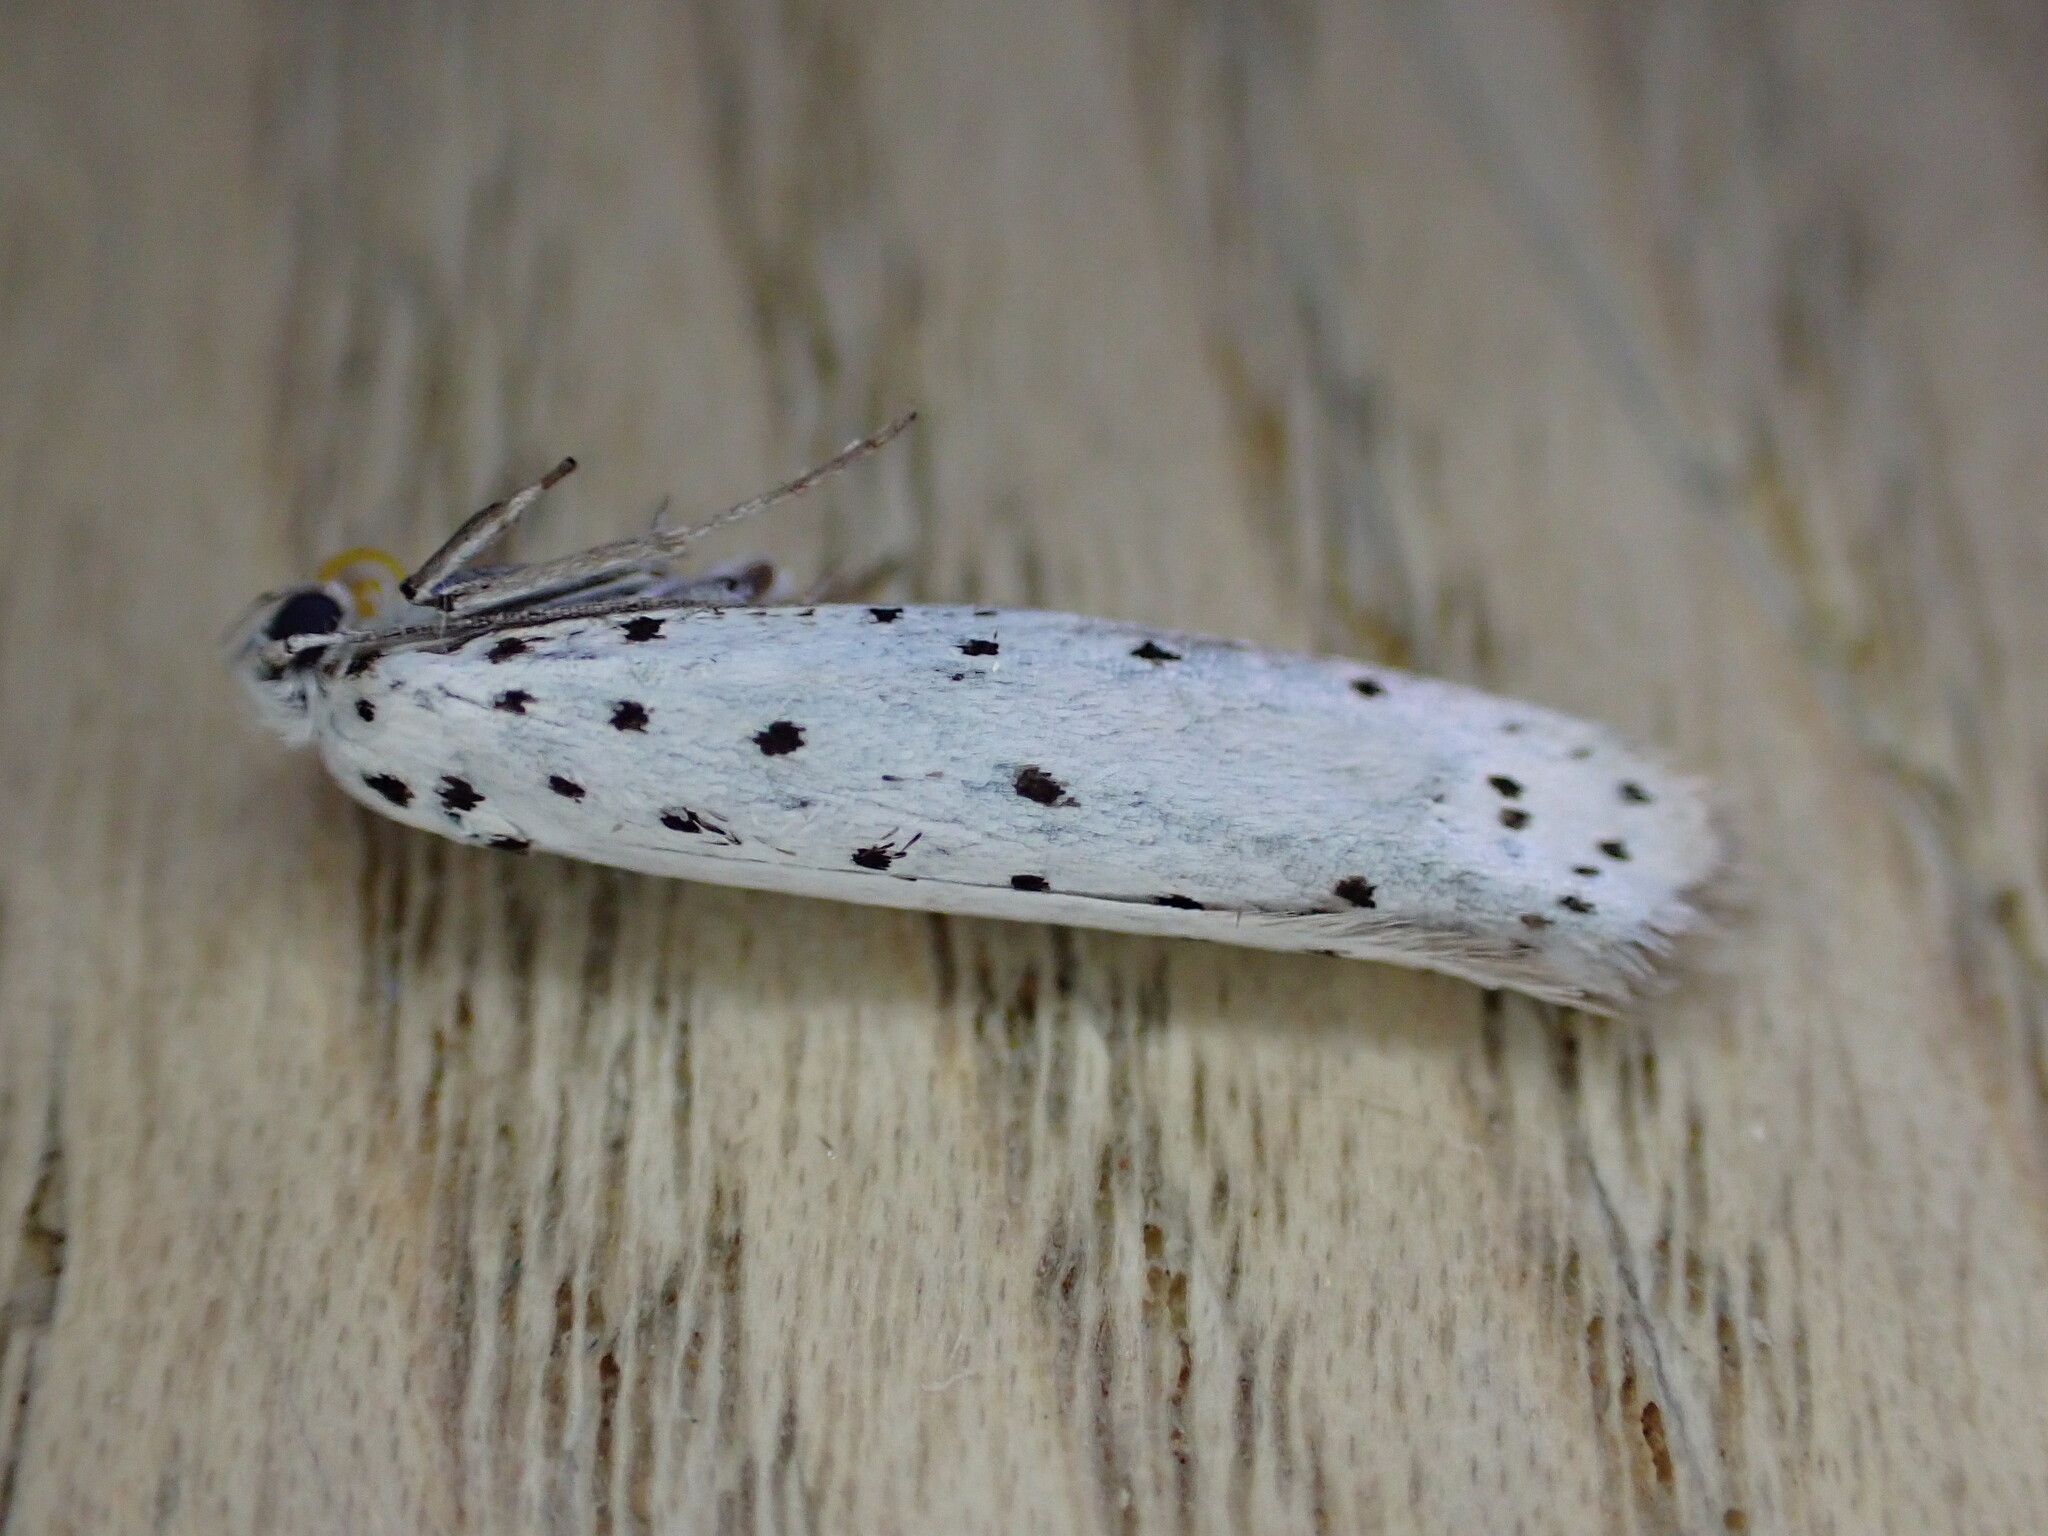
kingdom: Animalia
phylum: Arthropoda
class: Insecta
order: Lepidoptera
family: Yponomeutidae
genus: Yponomeuta
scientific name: Yponomeuta
